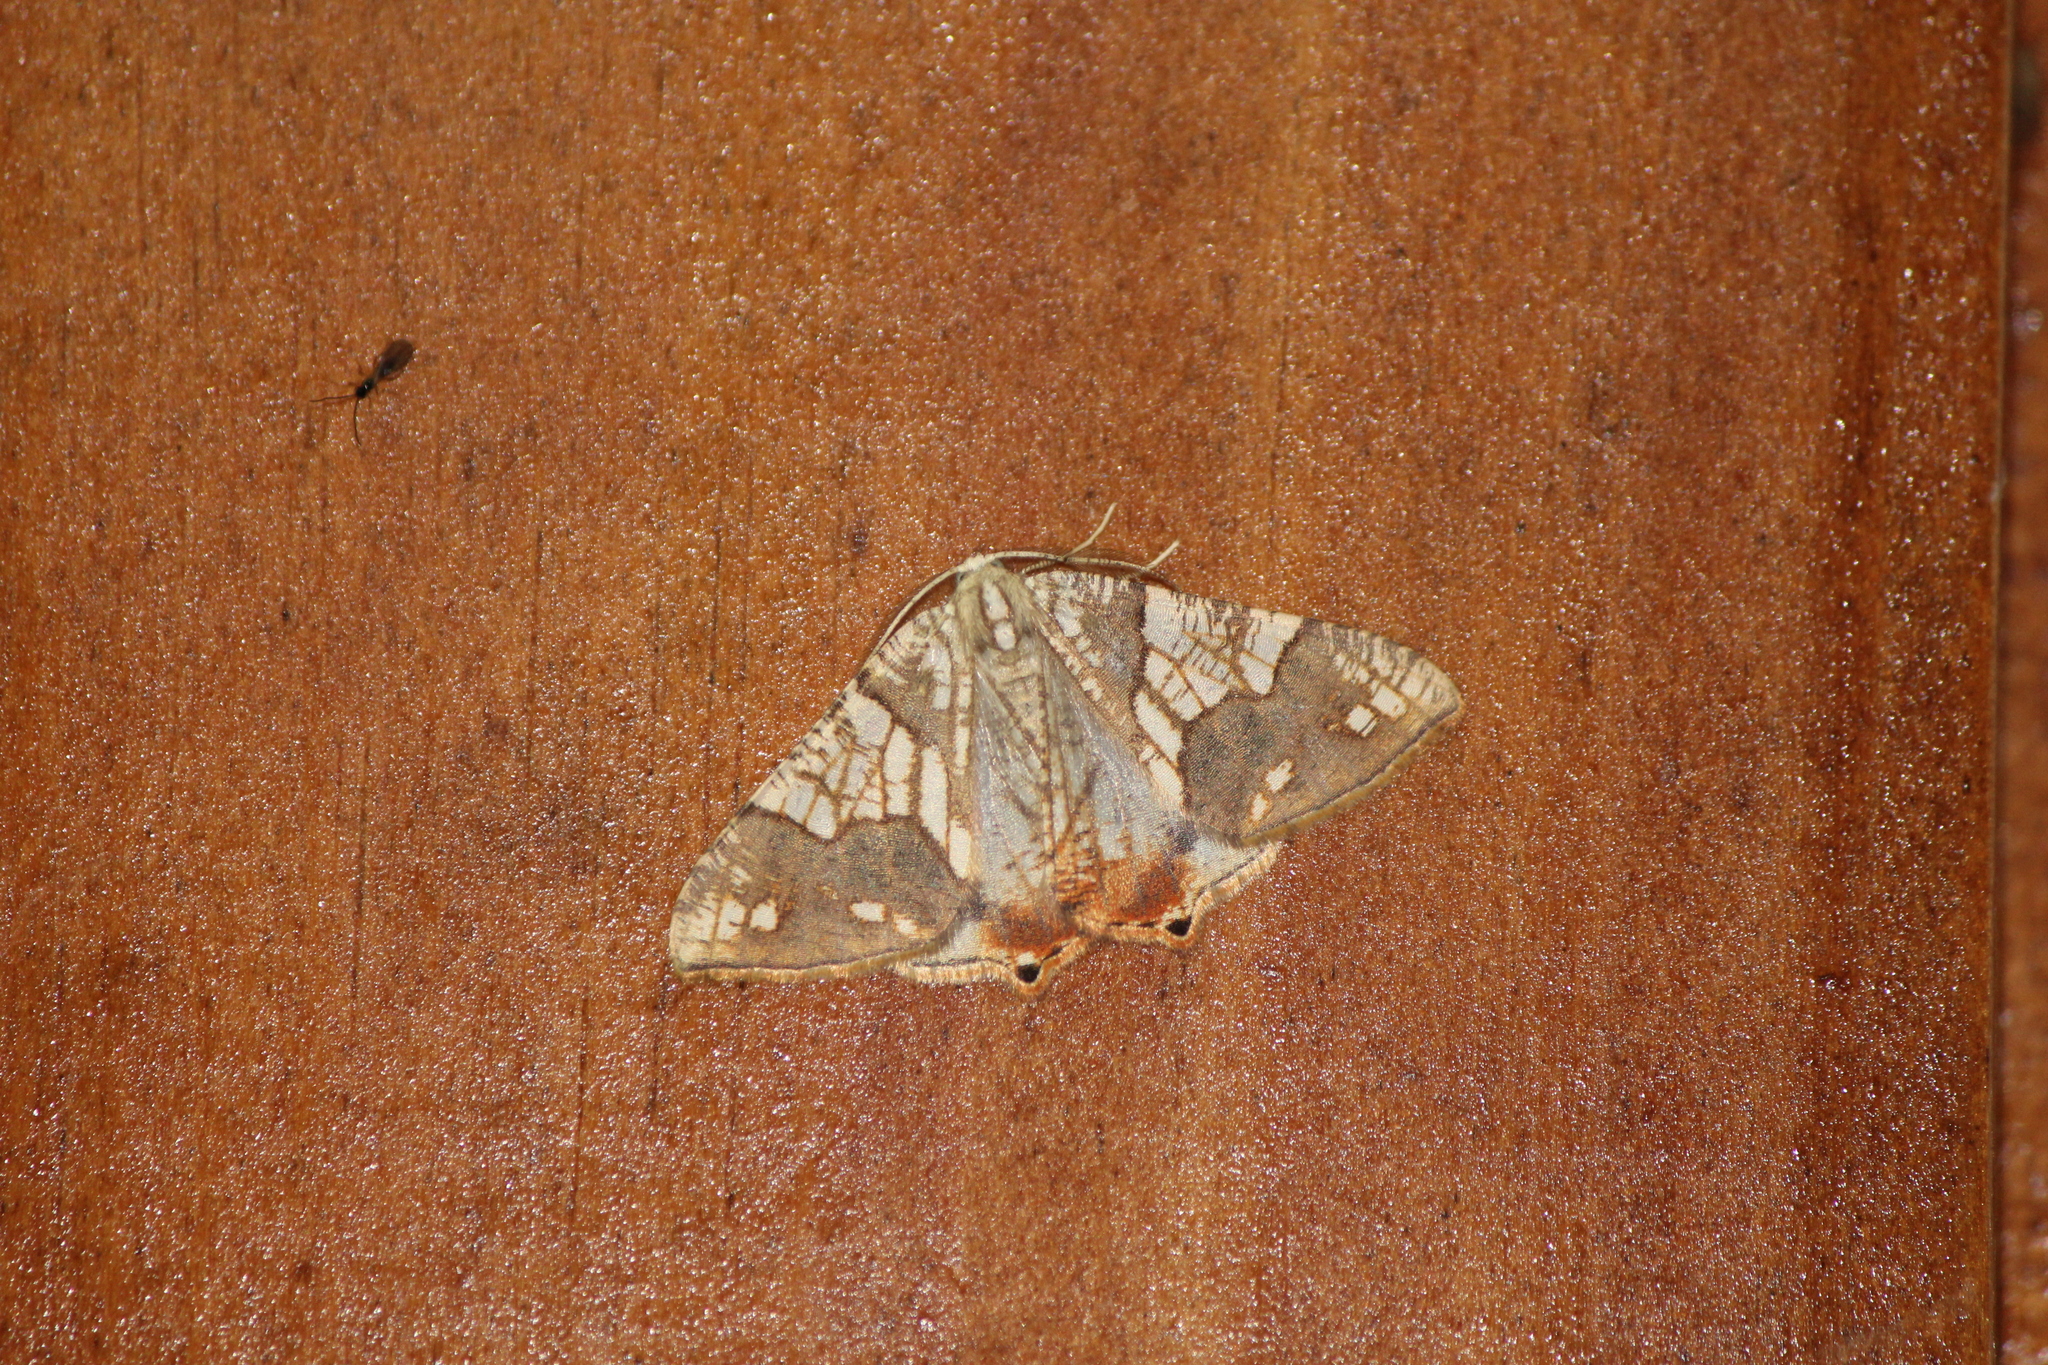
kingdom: Animalia
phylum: Arthropoda
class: Insecta
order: Lepidoptera
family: Geometridae
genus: Rindgeria
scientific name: Rindgeria ornata
